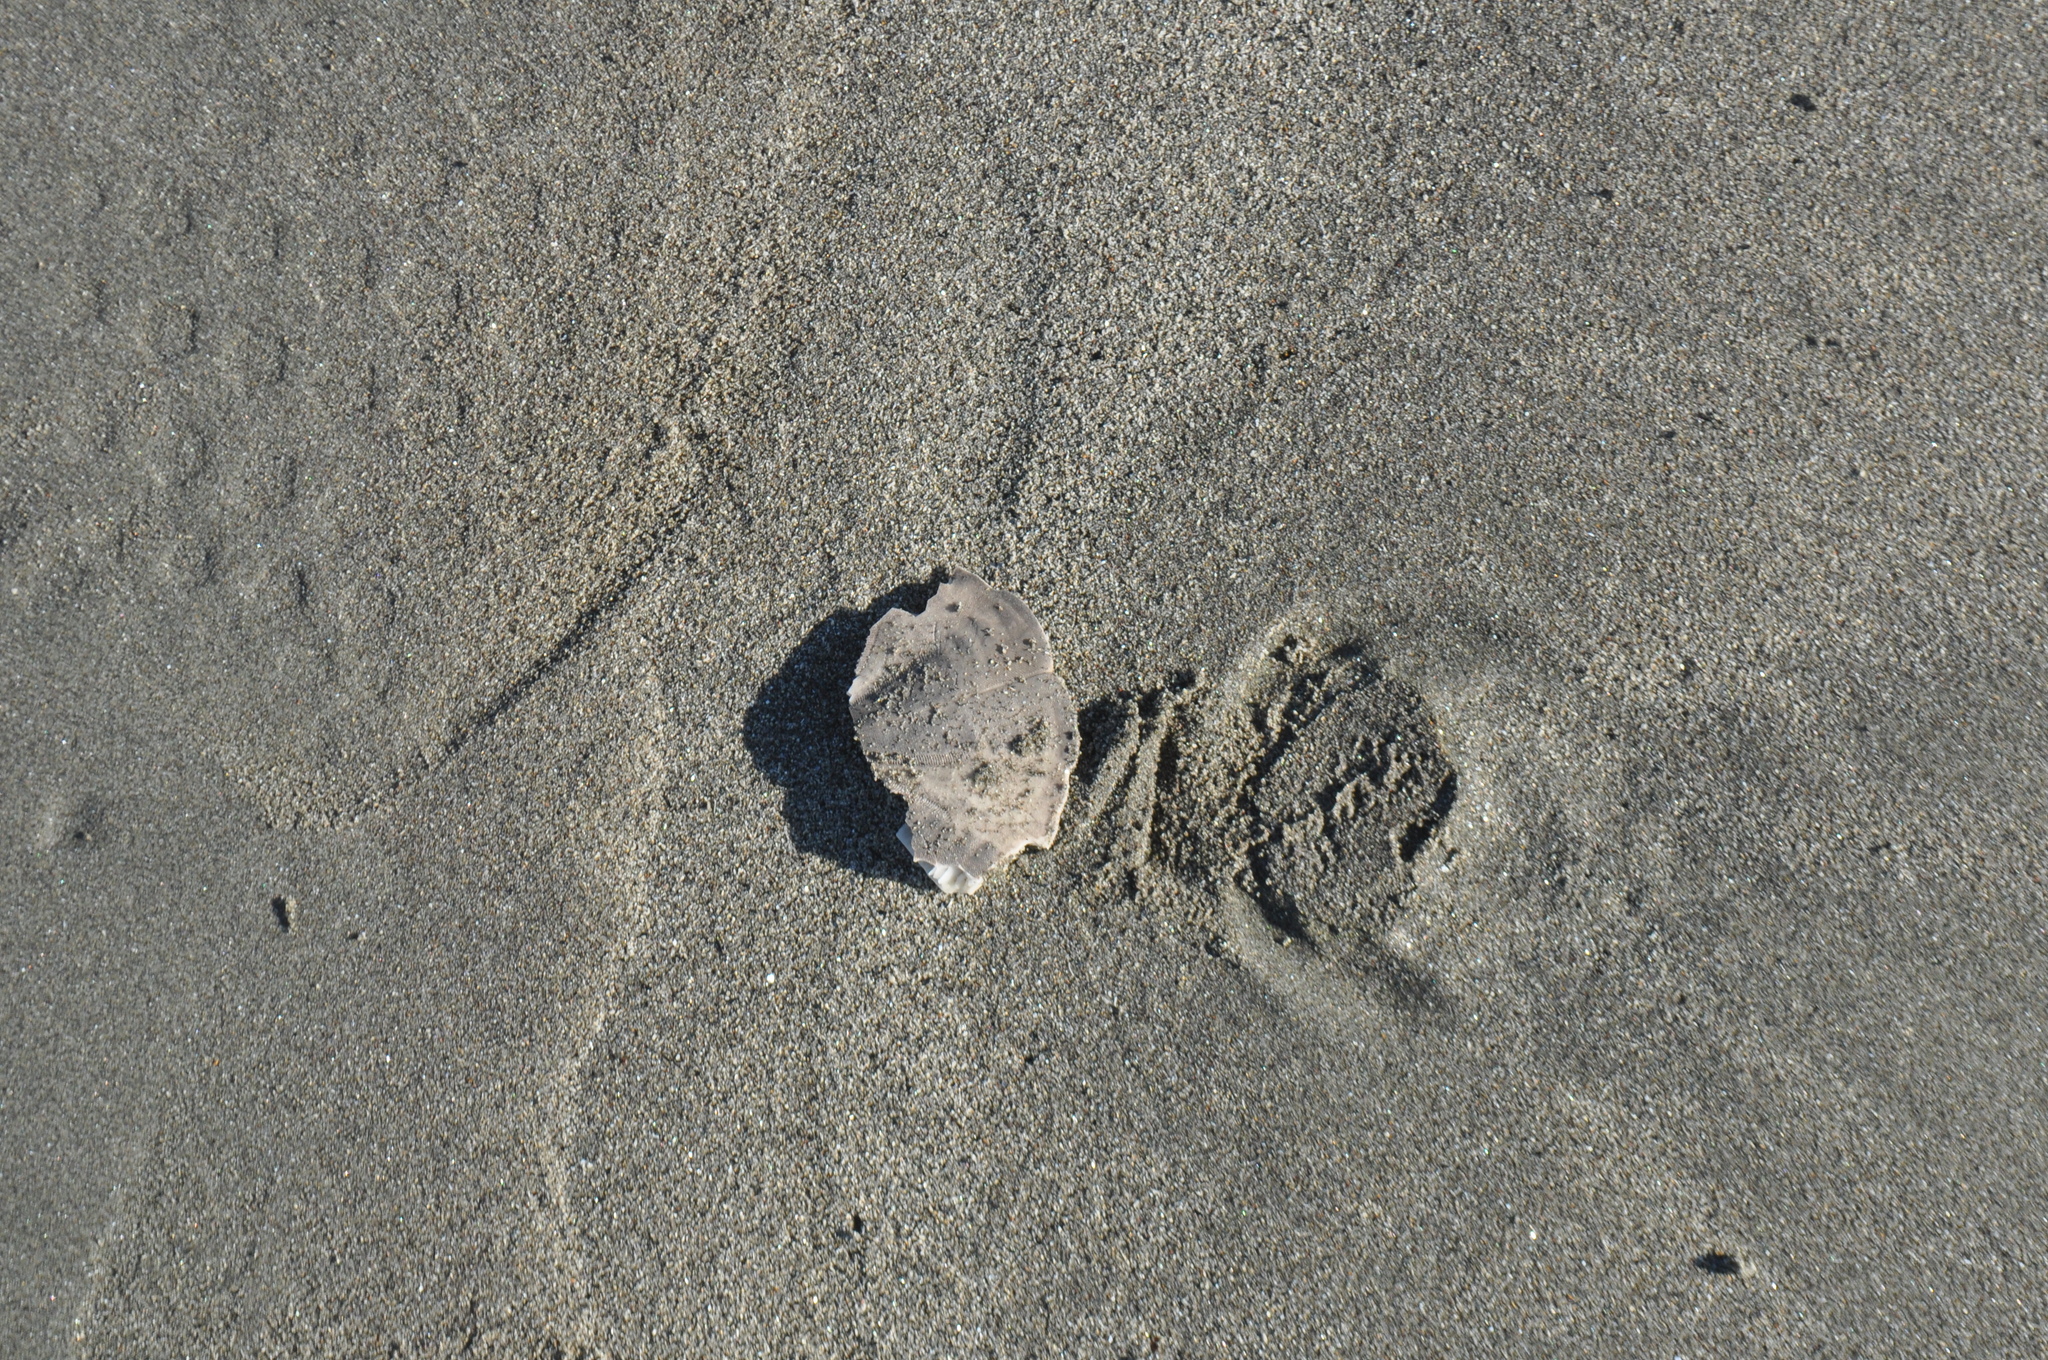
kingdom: Animalia
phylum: Echinodermata
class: Echinoidea
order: Clypeasteroida
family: Clypeasteridae
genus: Fellaster
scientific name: Fellaster zelandiae
